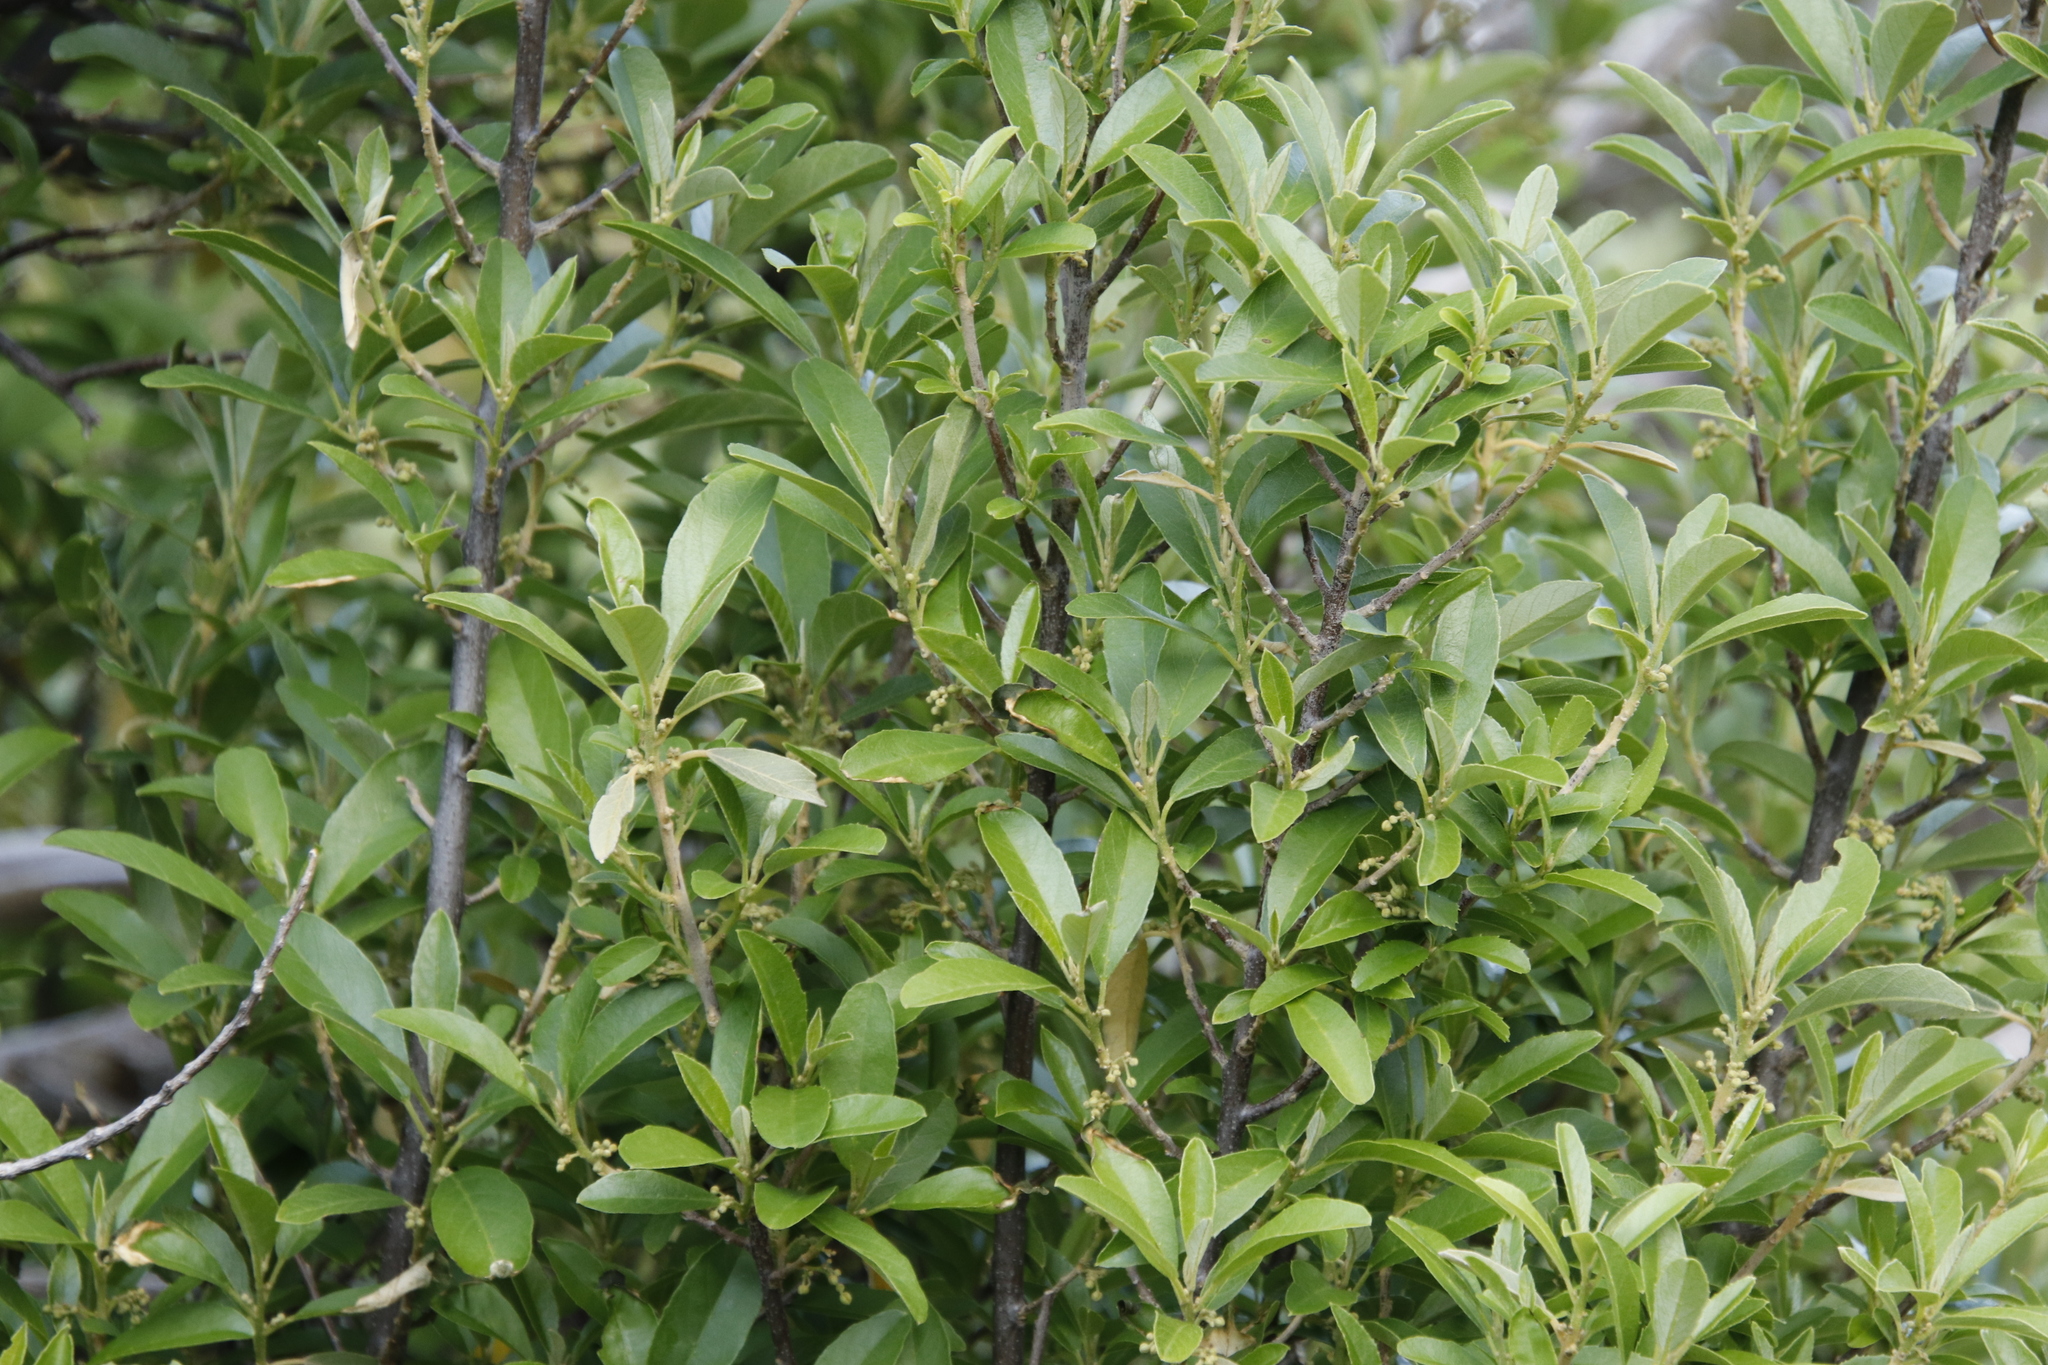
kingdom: Plantae
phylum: Tracheophyta
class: Magnoliopsida
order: Malpighiales
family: Achariaceae
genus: Kiggelaria
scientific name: Kiggelaria africana
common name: Wild peach
